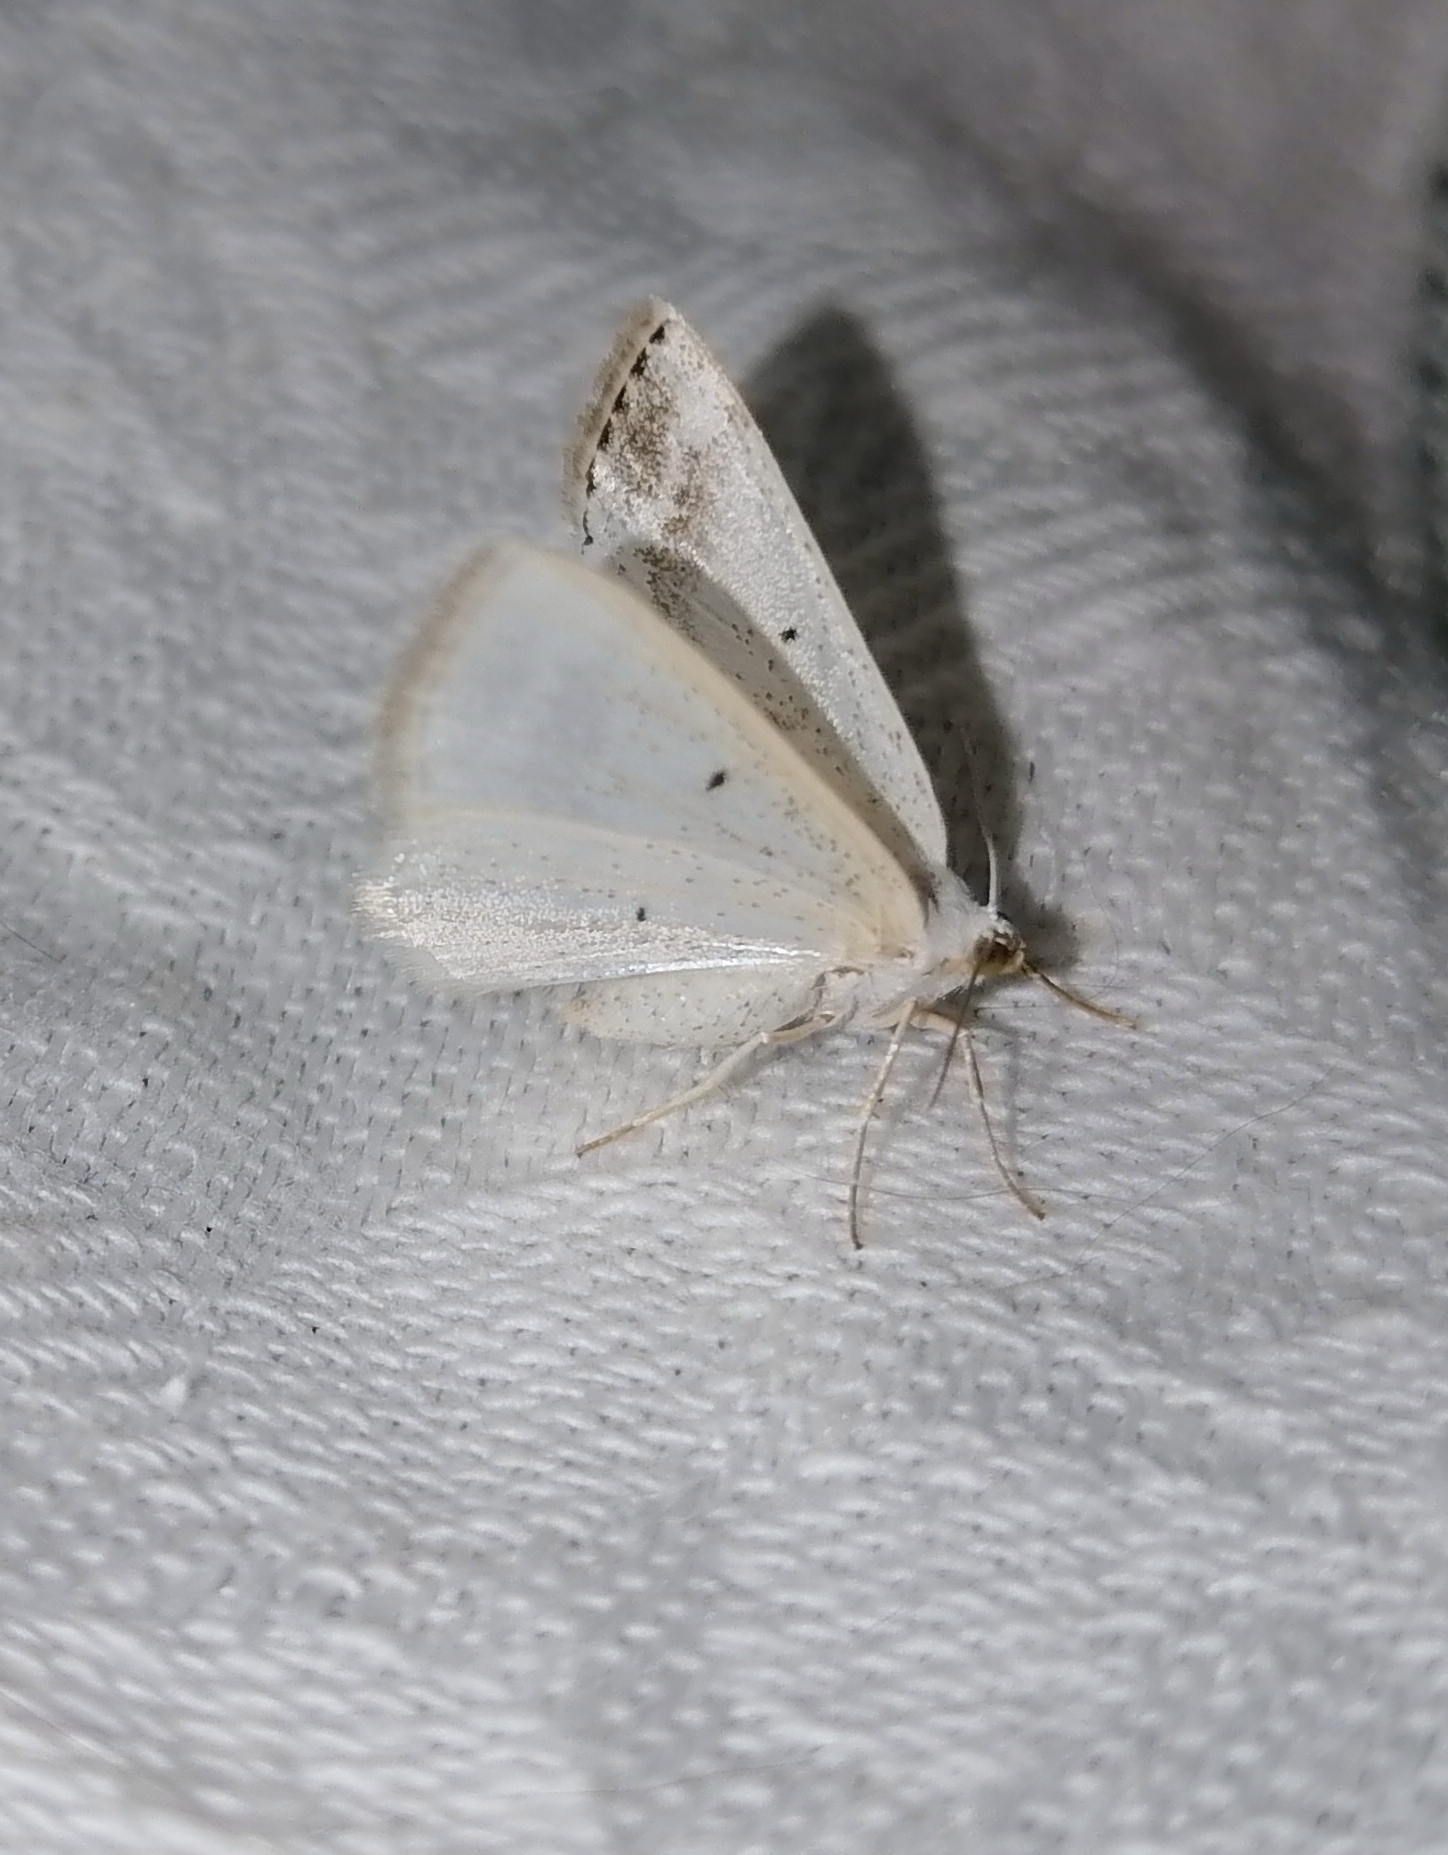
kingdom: Animalia
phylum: Arthropoda
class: Insecta
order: Lepidoptera
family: Geometridae
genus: Lomographa
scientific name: Lomographa temerata
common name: Clouded silver
